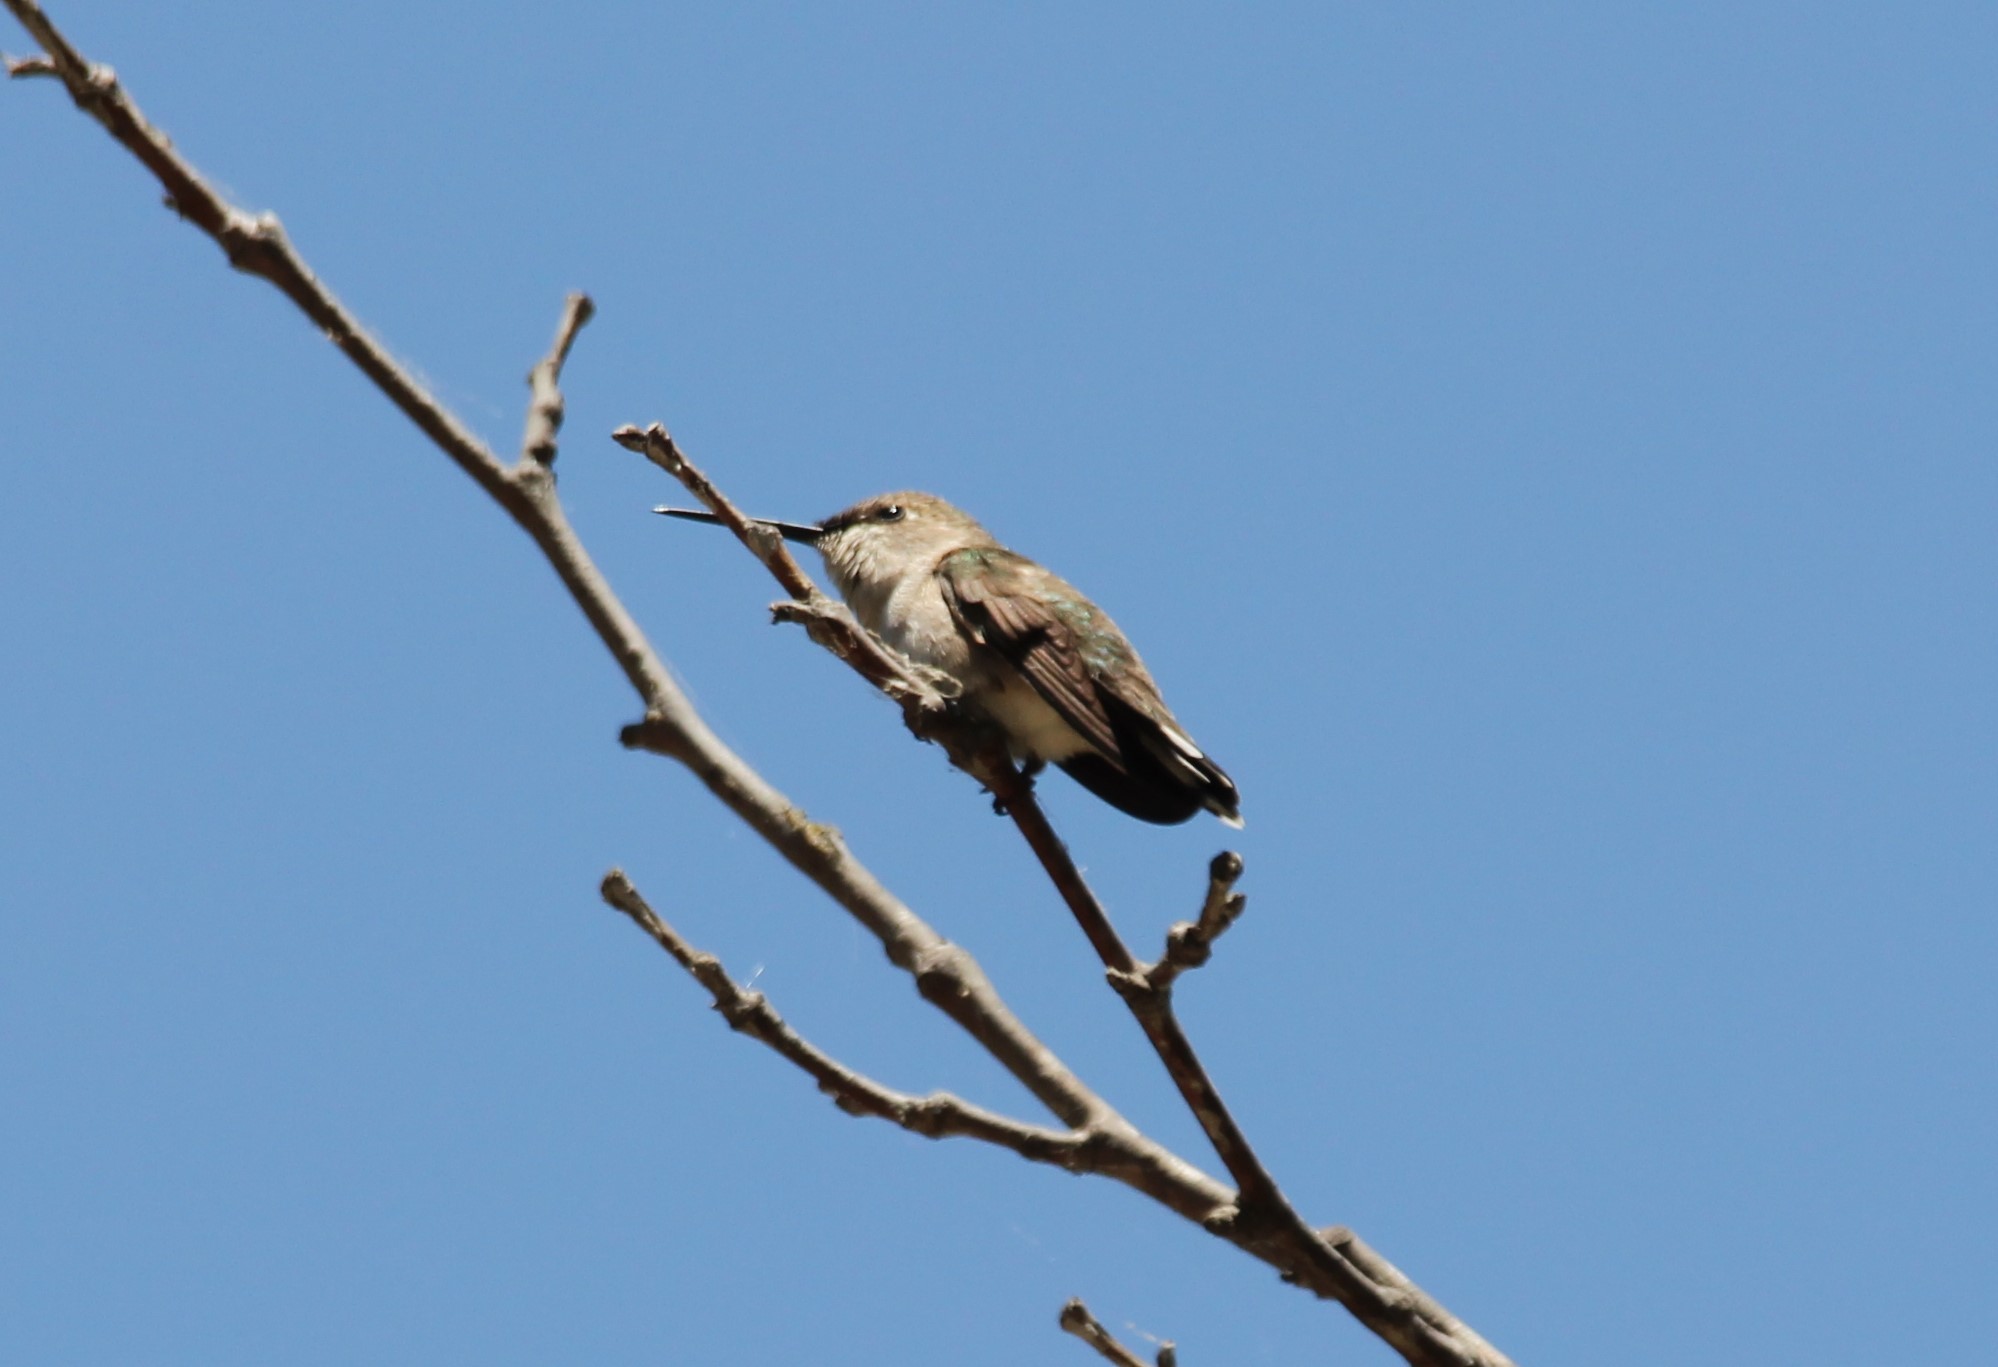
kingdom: Animalia
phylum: Chordata
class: Aves
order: Apodiformes
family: Trochilidae
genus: Archilochus
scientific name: Archilochus alexandri
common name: Black-chinned hummingbird
